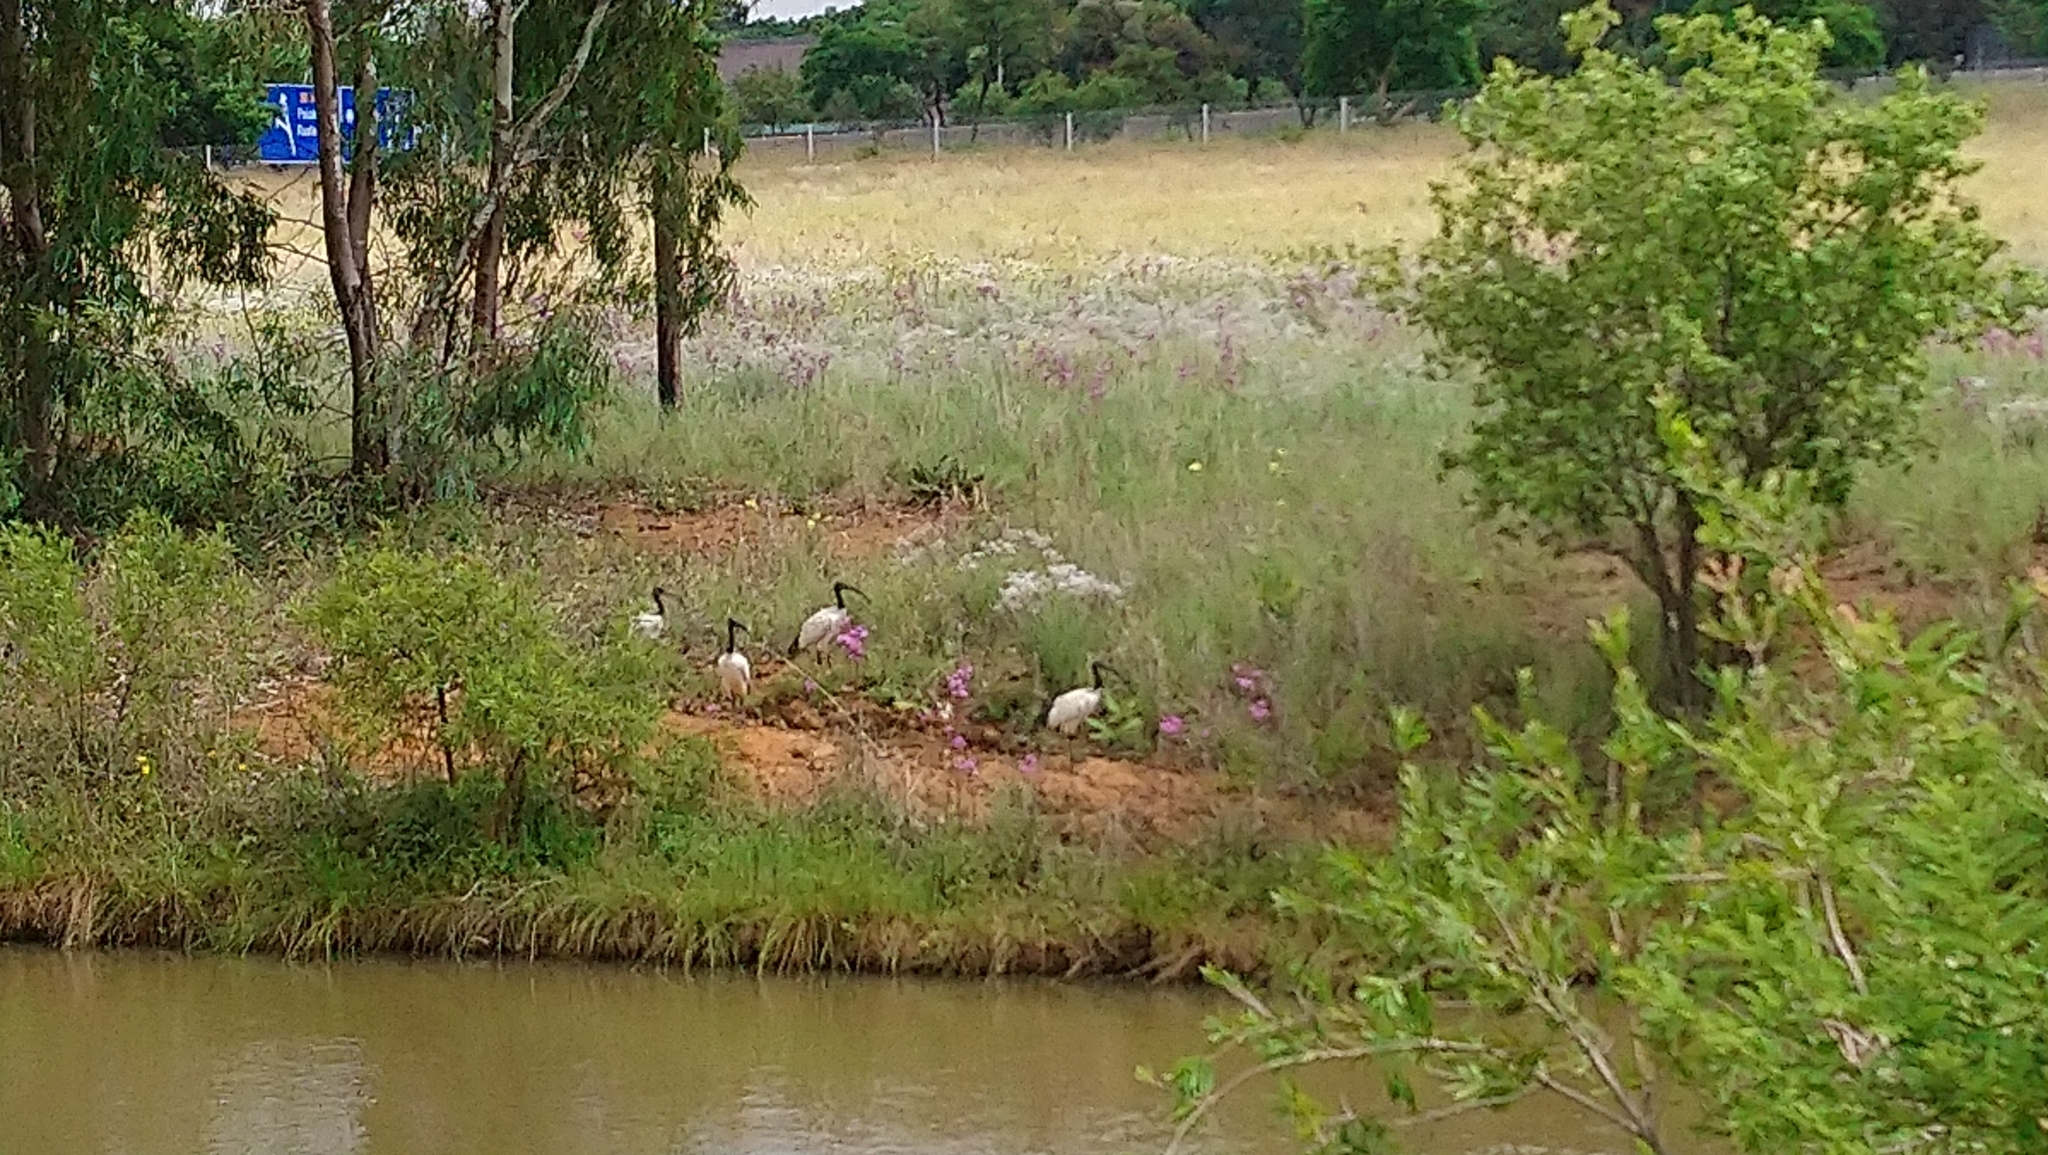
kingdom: Animalia
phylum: Chordata
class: Aves
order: Pelecaniformes
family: Threskiornithidae
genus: Threskiornis
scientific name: Threskiornis aethiopicus
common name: Sacred ibis
